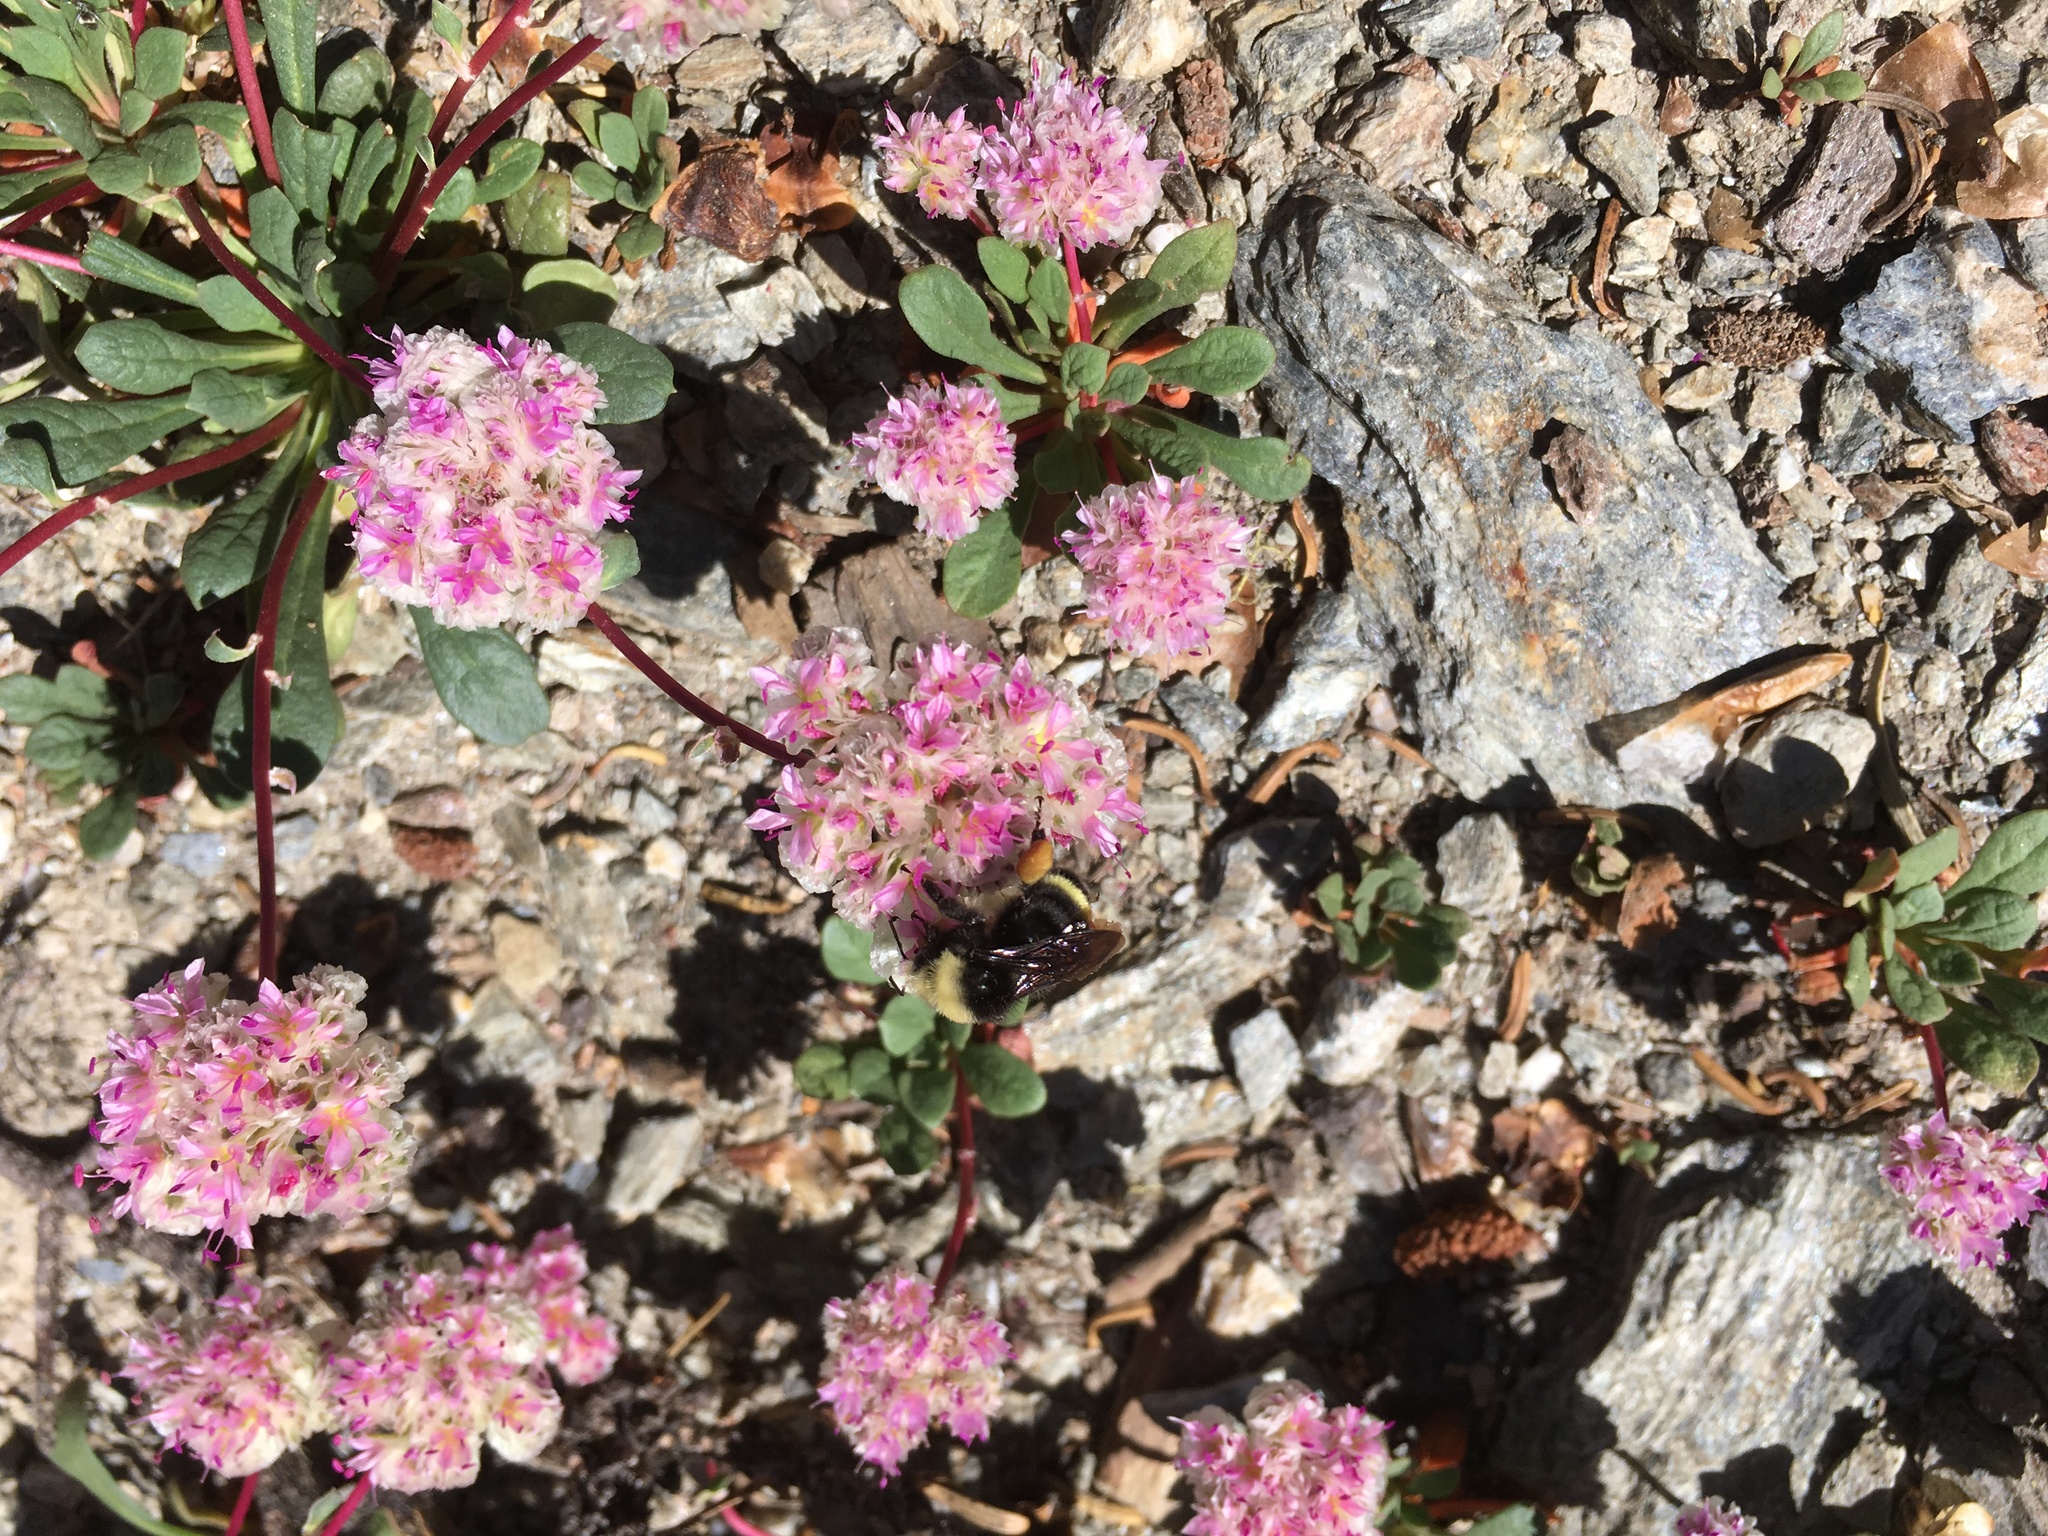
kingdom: Plantae
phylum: Tracheophyta
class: Magnoliopsida
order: Caryophyllales
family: Montiaceae
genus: Calyptridium
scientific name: Calyptridium monospermum
